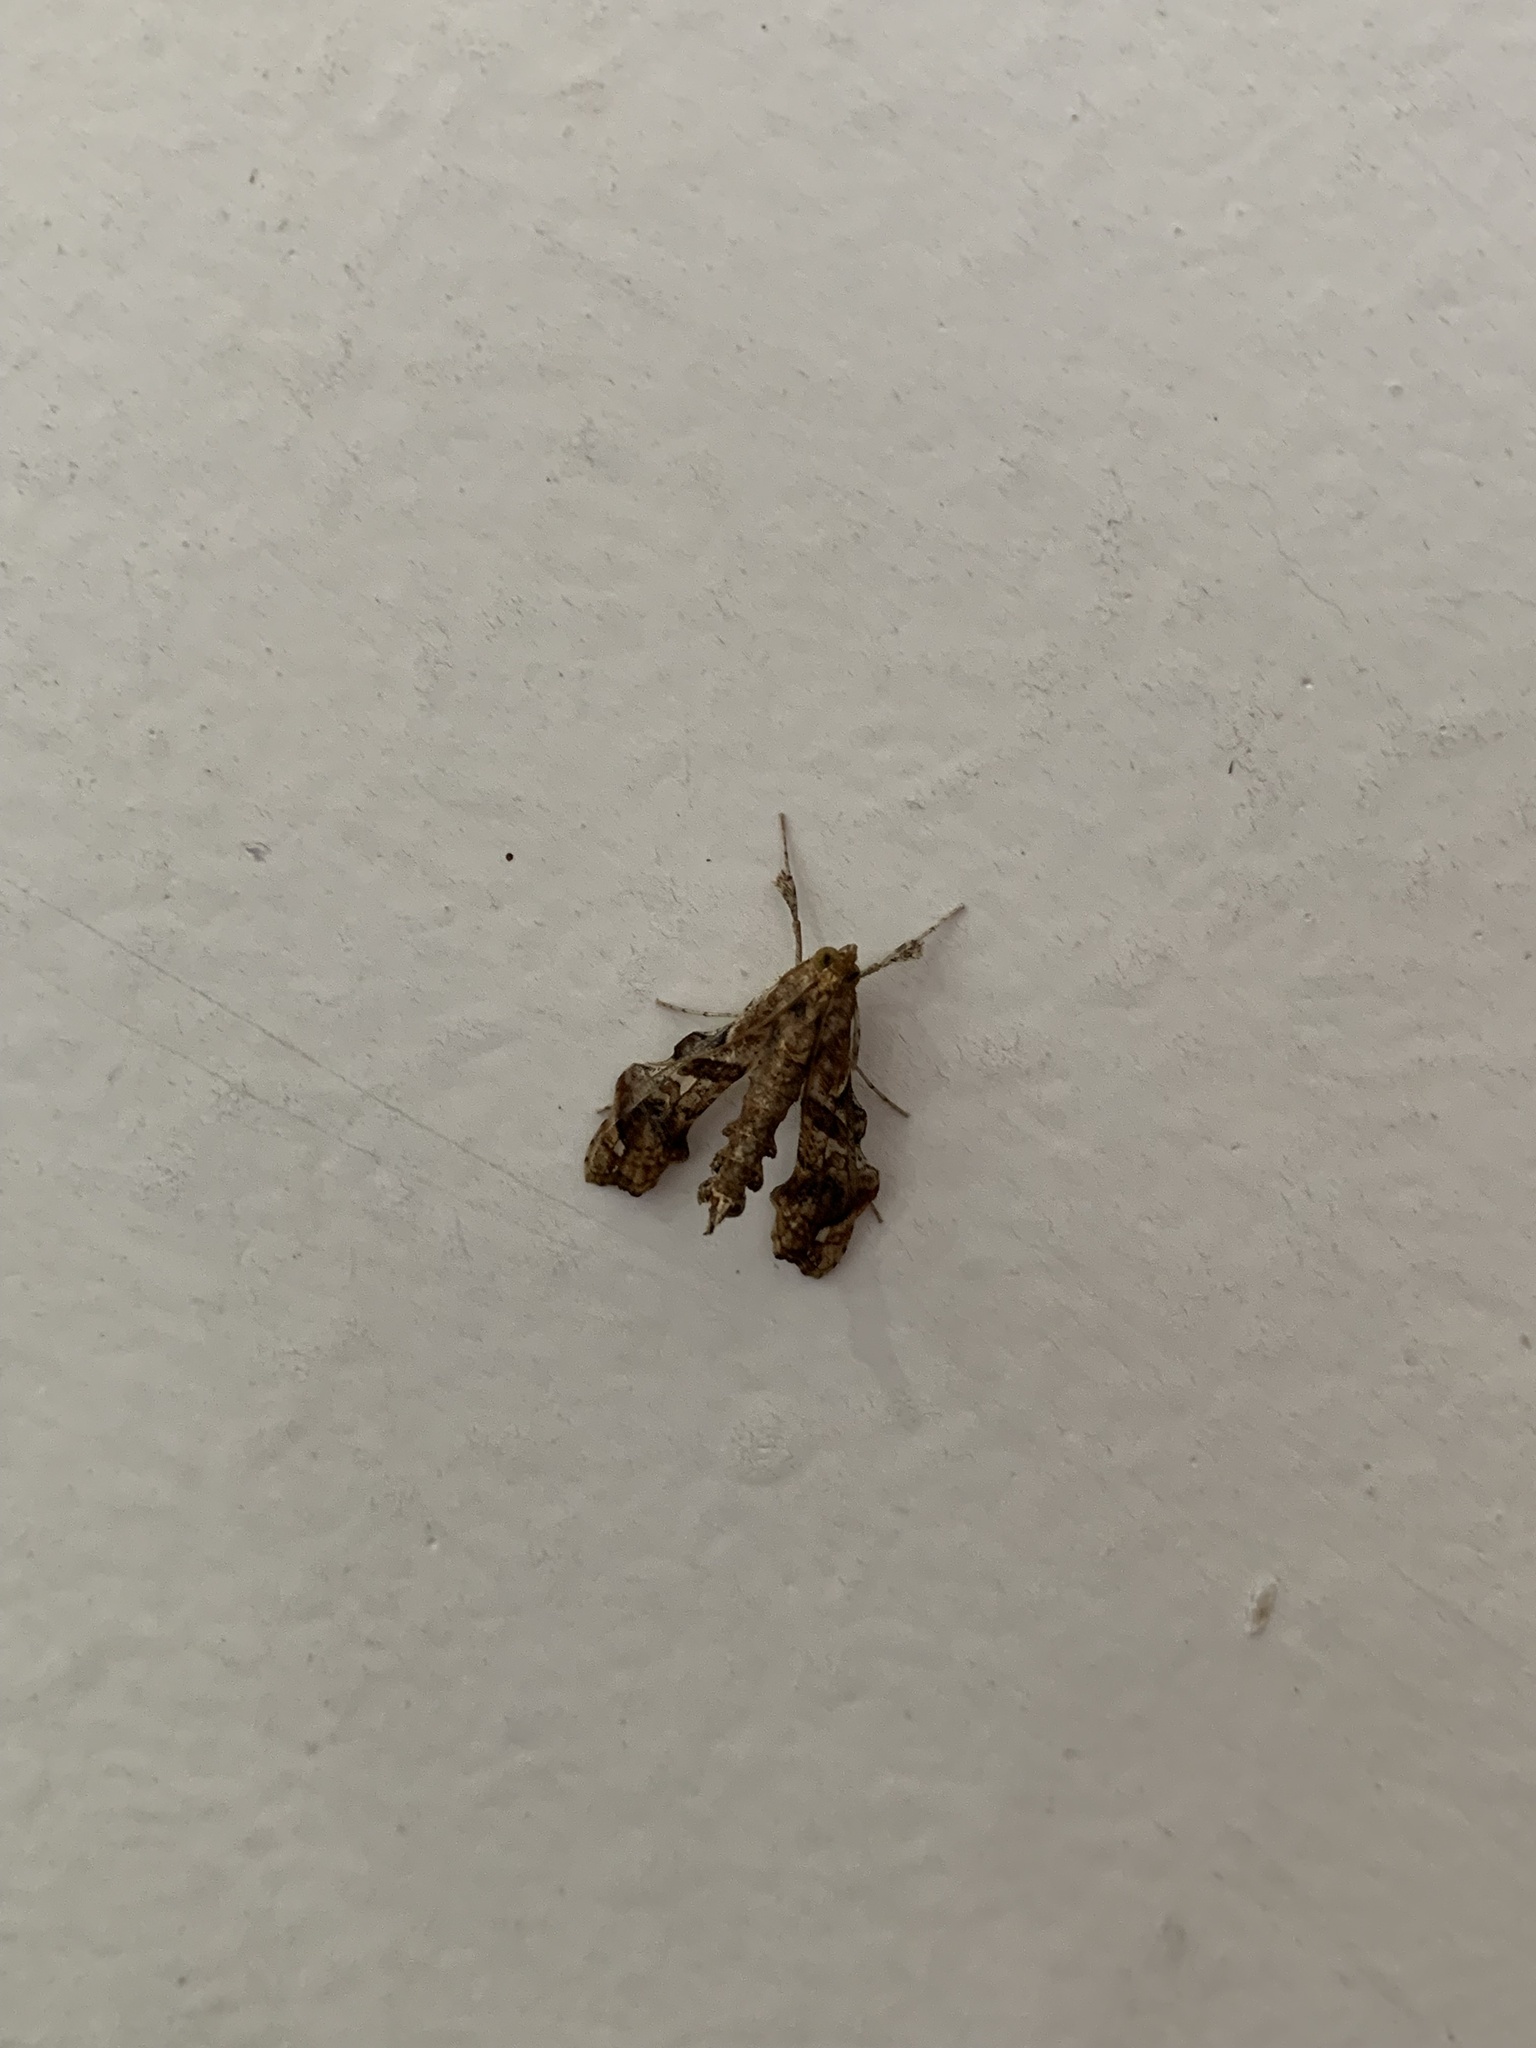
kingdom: Animalia
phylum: Arthropoda
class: Insecta
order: Lepidoptera
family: Crambidae
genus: Terastia
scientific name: Terastia meticulosalis
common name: Moth
